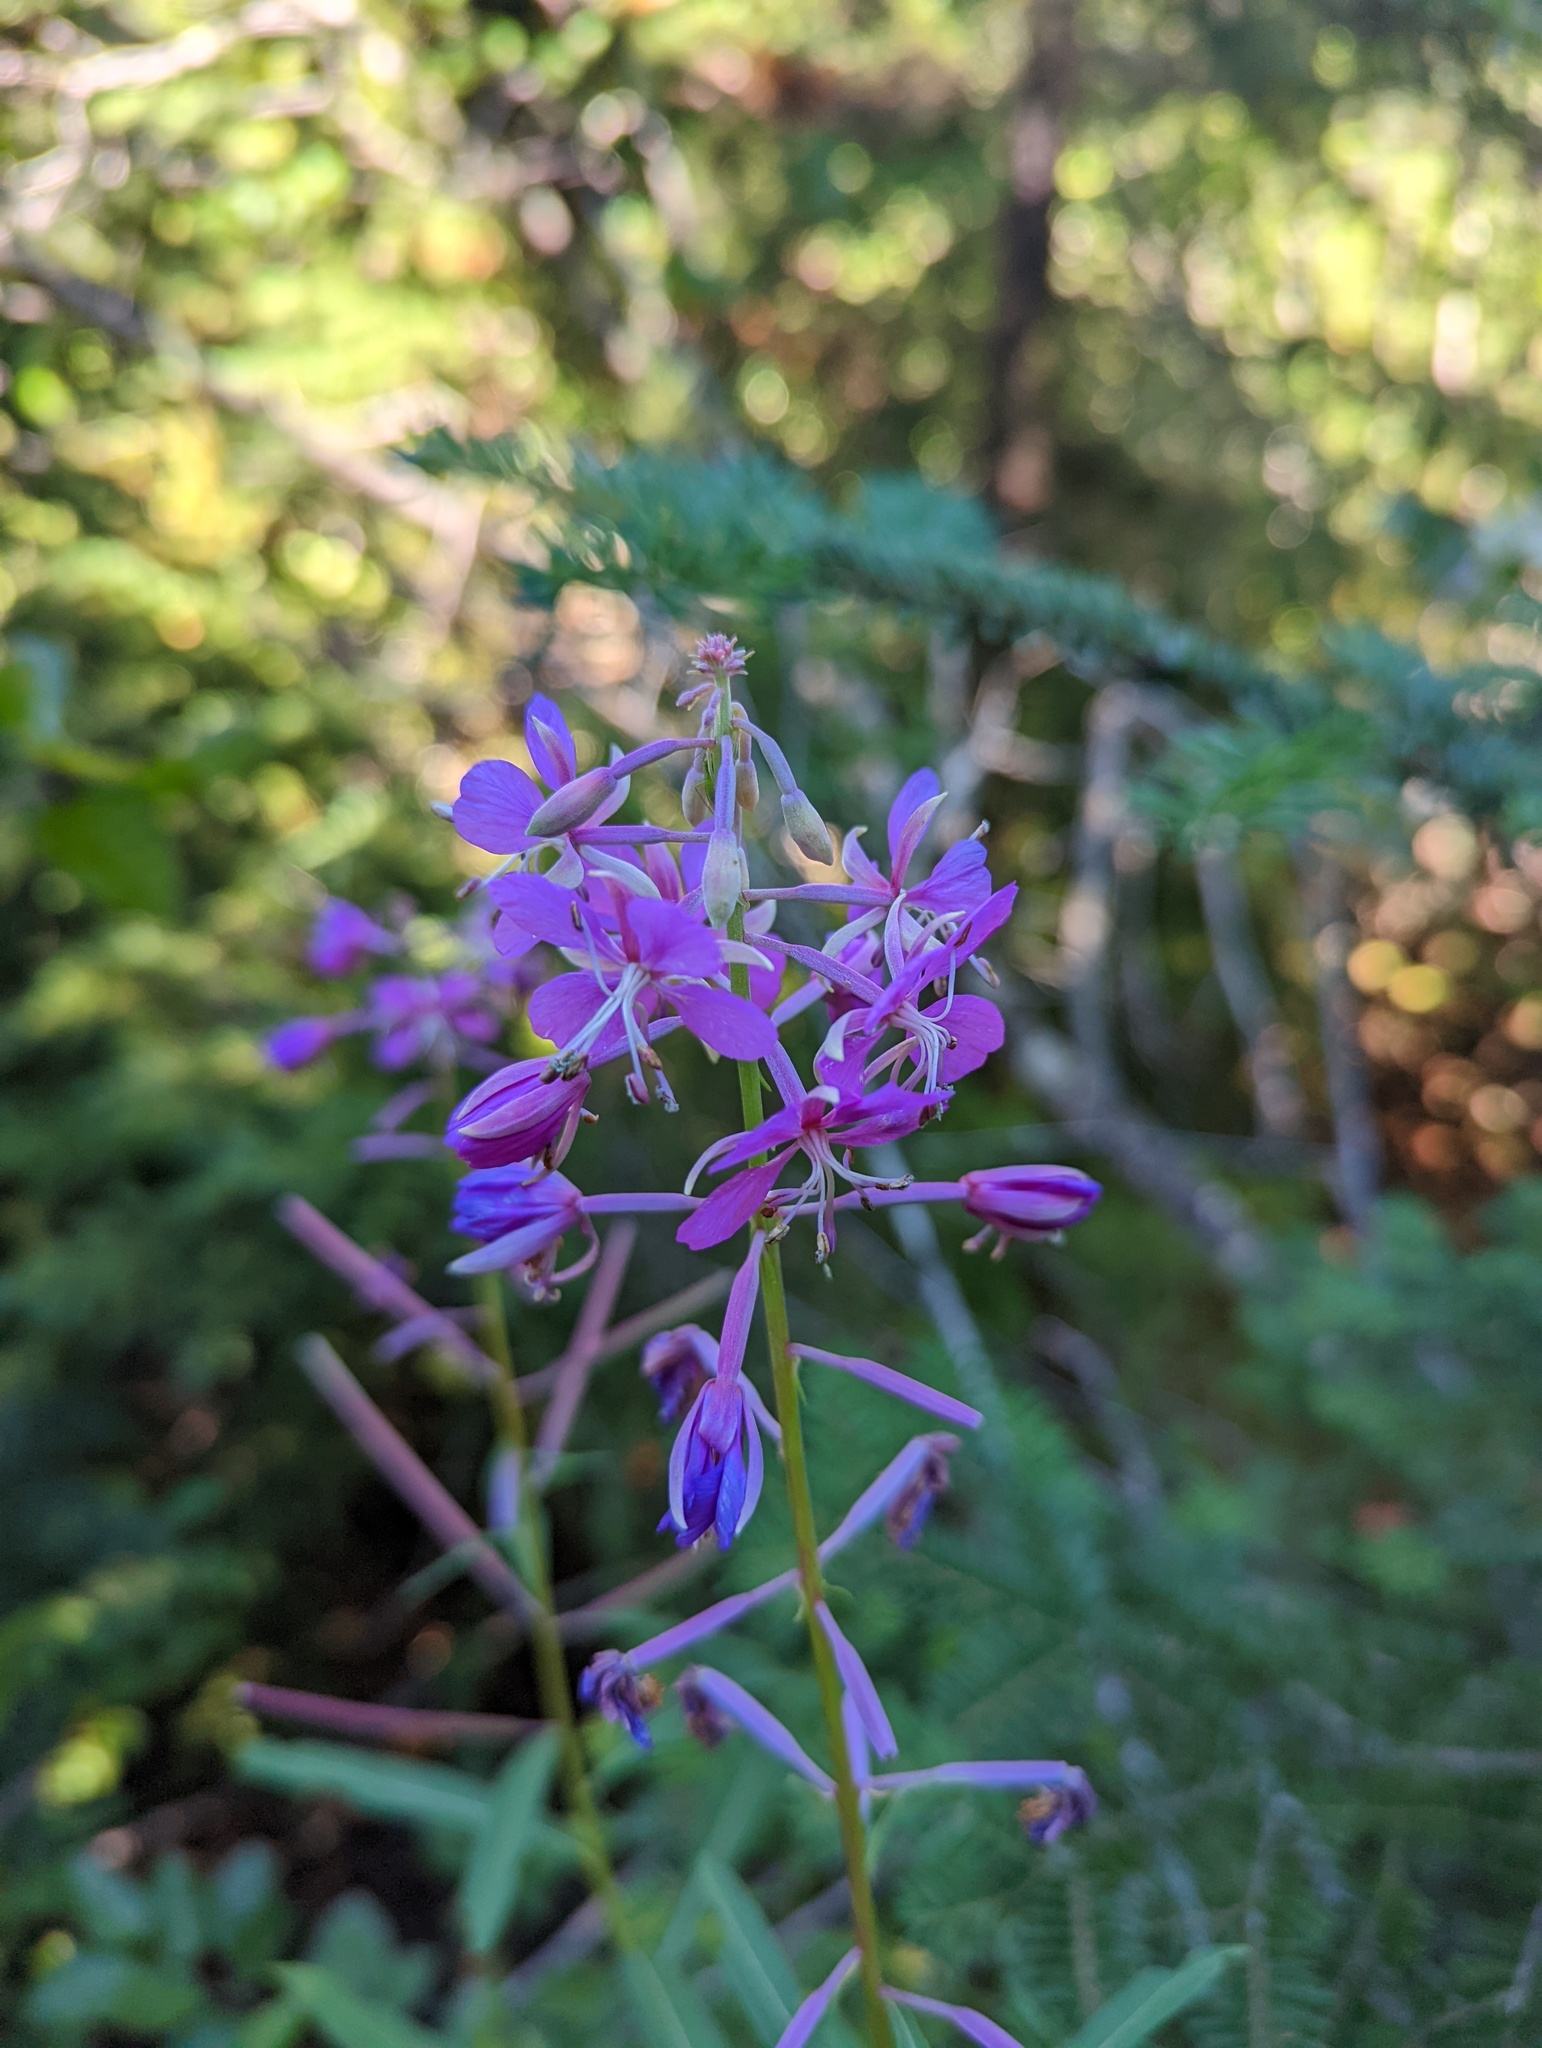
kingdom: Plantae
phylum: Tracheophyta
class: Magnoliopsida
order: Myrtales
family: Onagraceae
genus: Chamaenerion
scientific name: Chamaenerion angustifolium
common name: Fireweed
